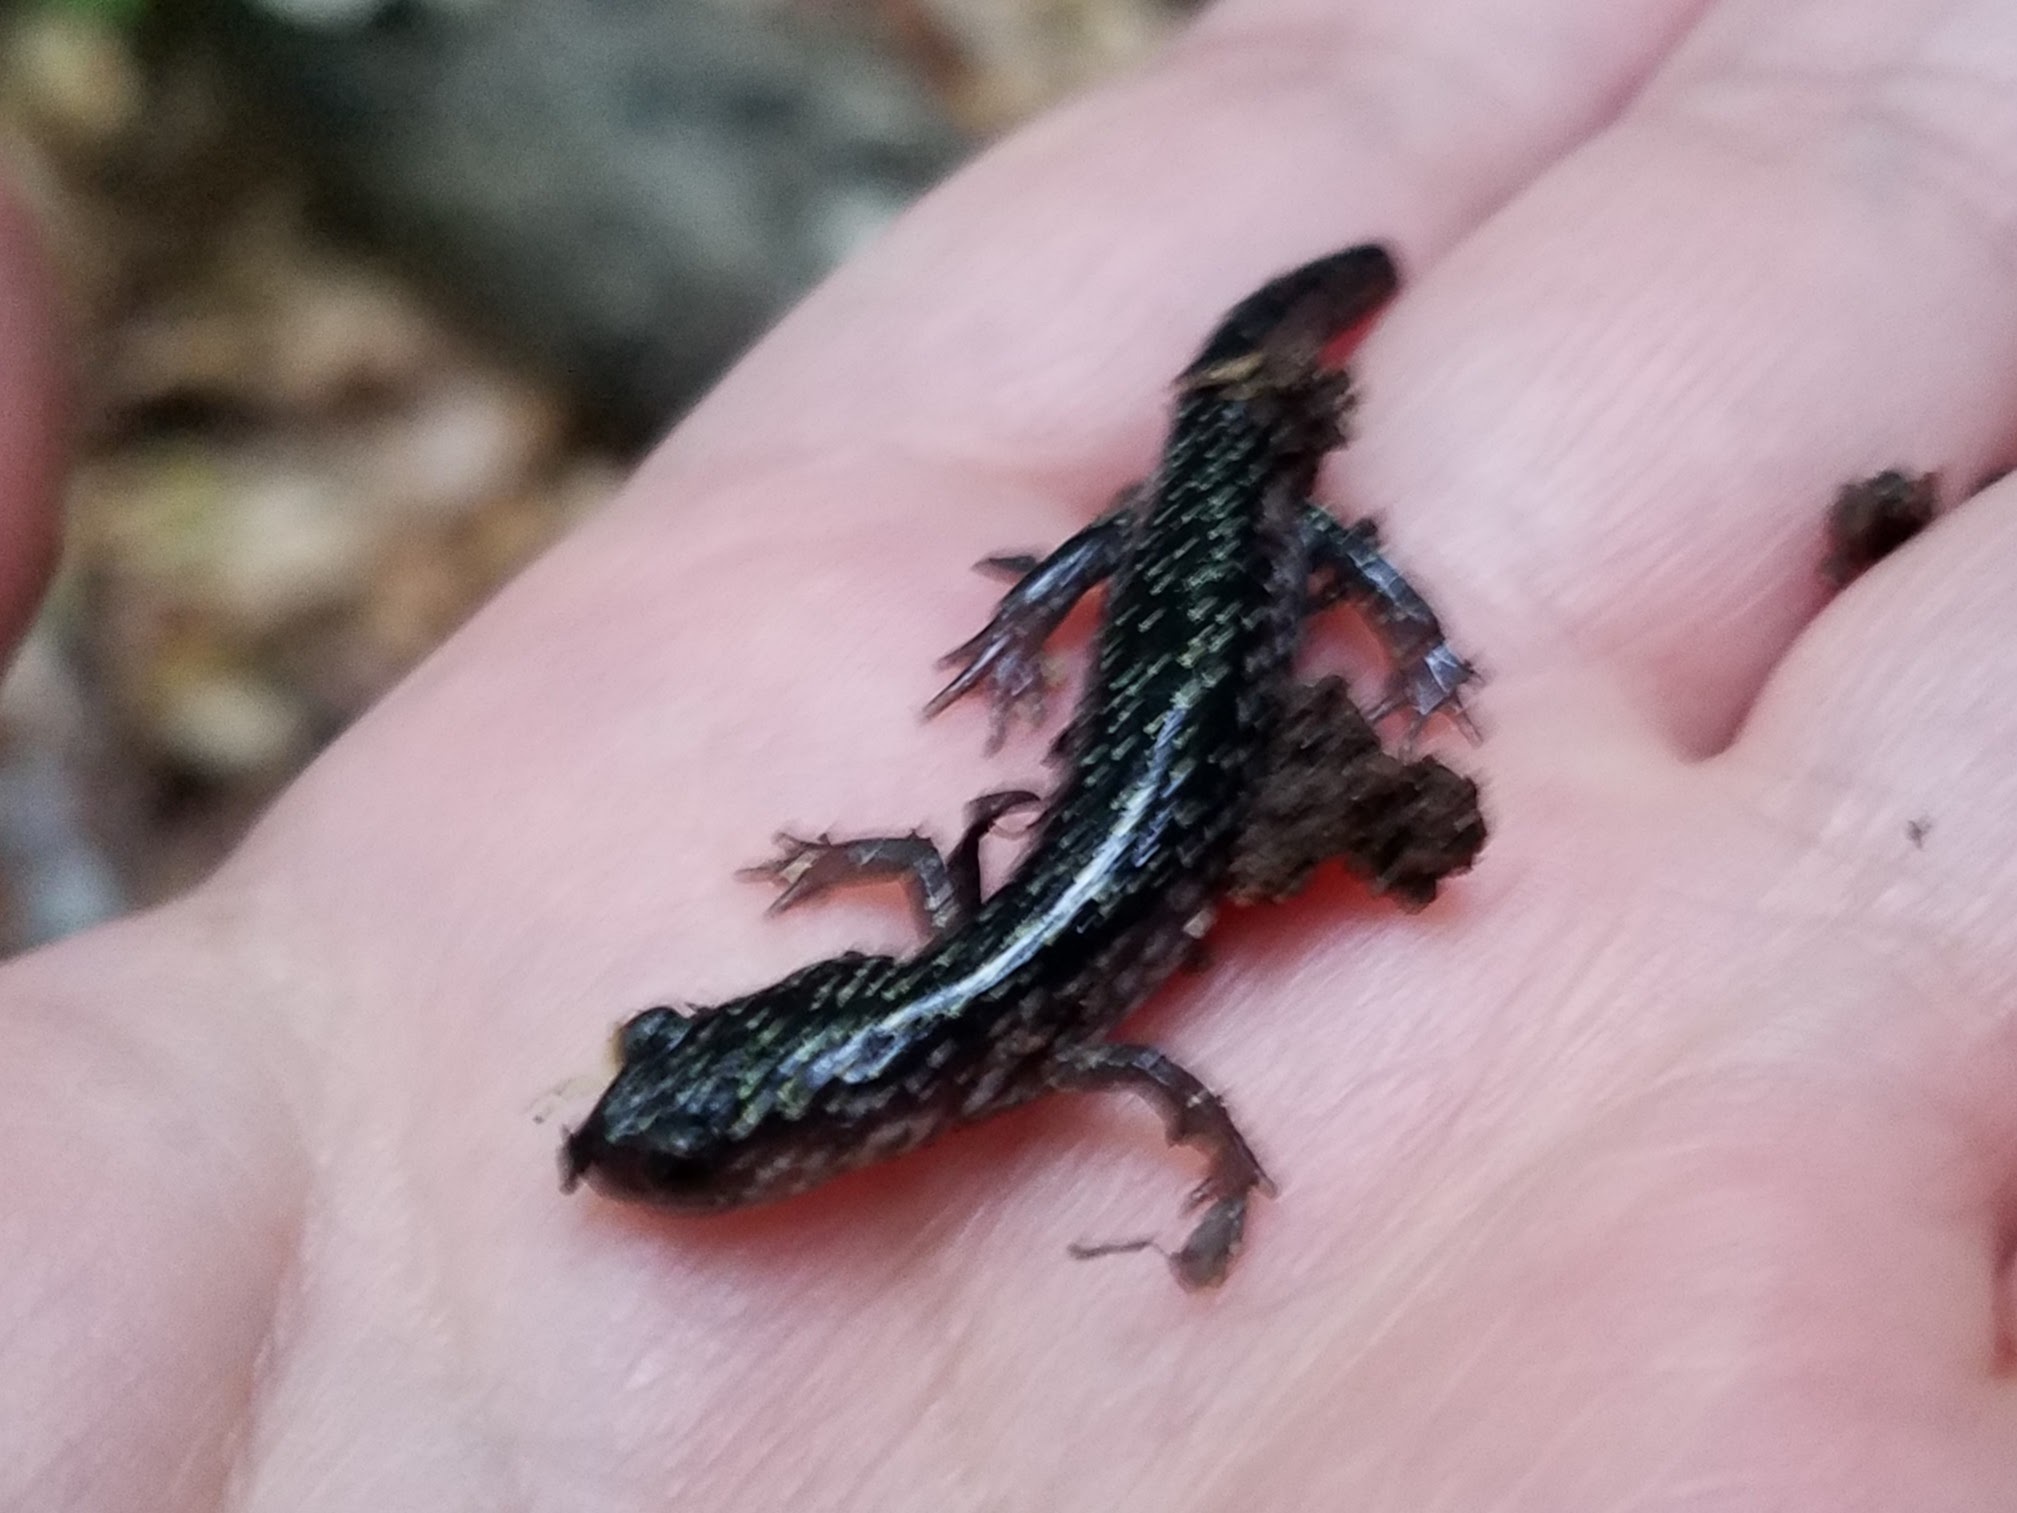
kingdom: Animalia
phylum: Chordata
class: Amphibia
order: Caudata
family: Plethodontidae
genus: Plethodon
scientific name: Plethodon glutinosus
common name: Northern slimy salamander
